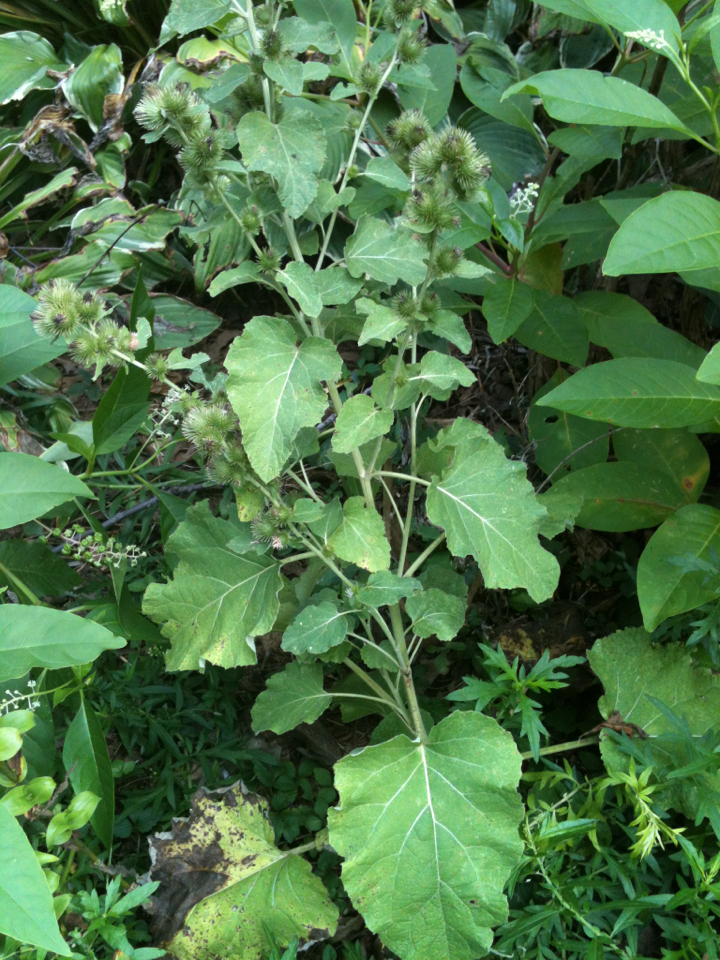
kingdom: Plantae
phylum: Tracheophyta
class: Magnoliopsida
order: Asterales
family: Asteraceae
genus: Arctium
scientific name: Arctium minus
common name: Lesser burdock
